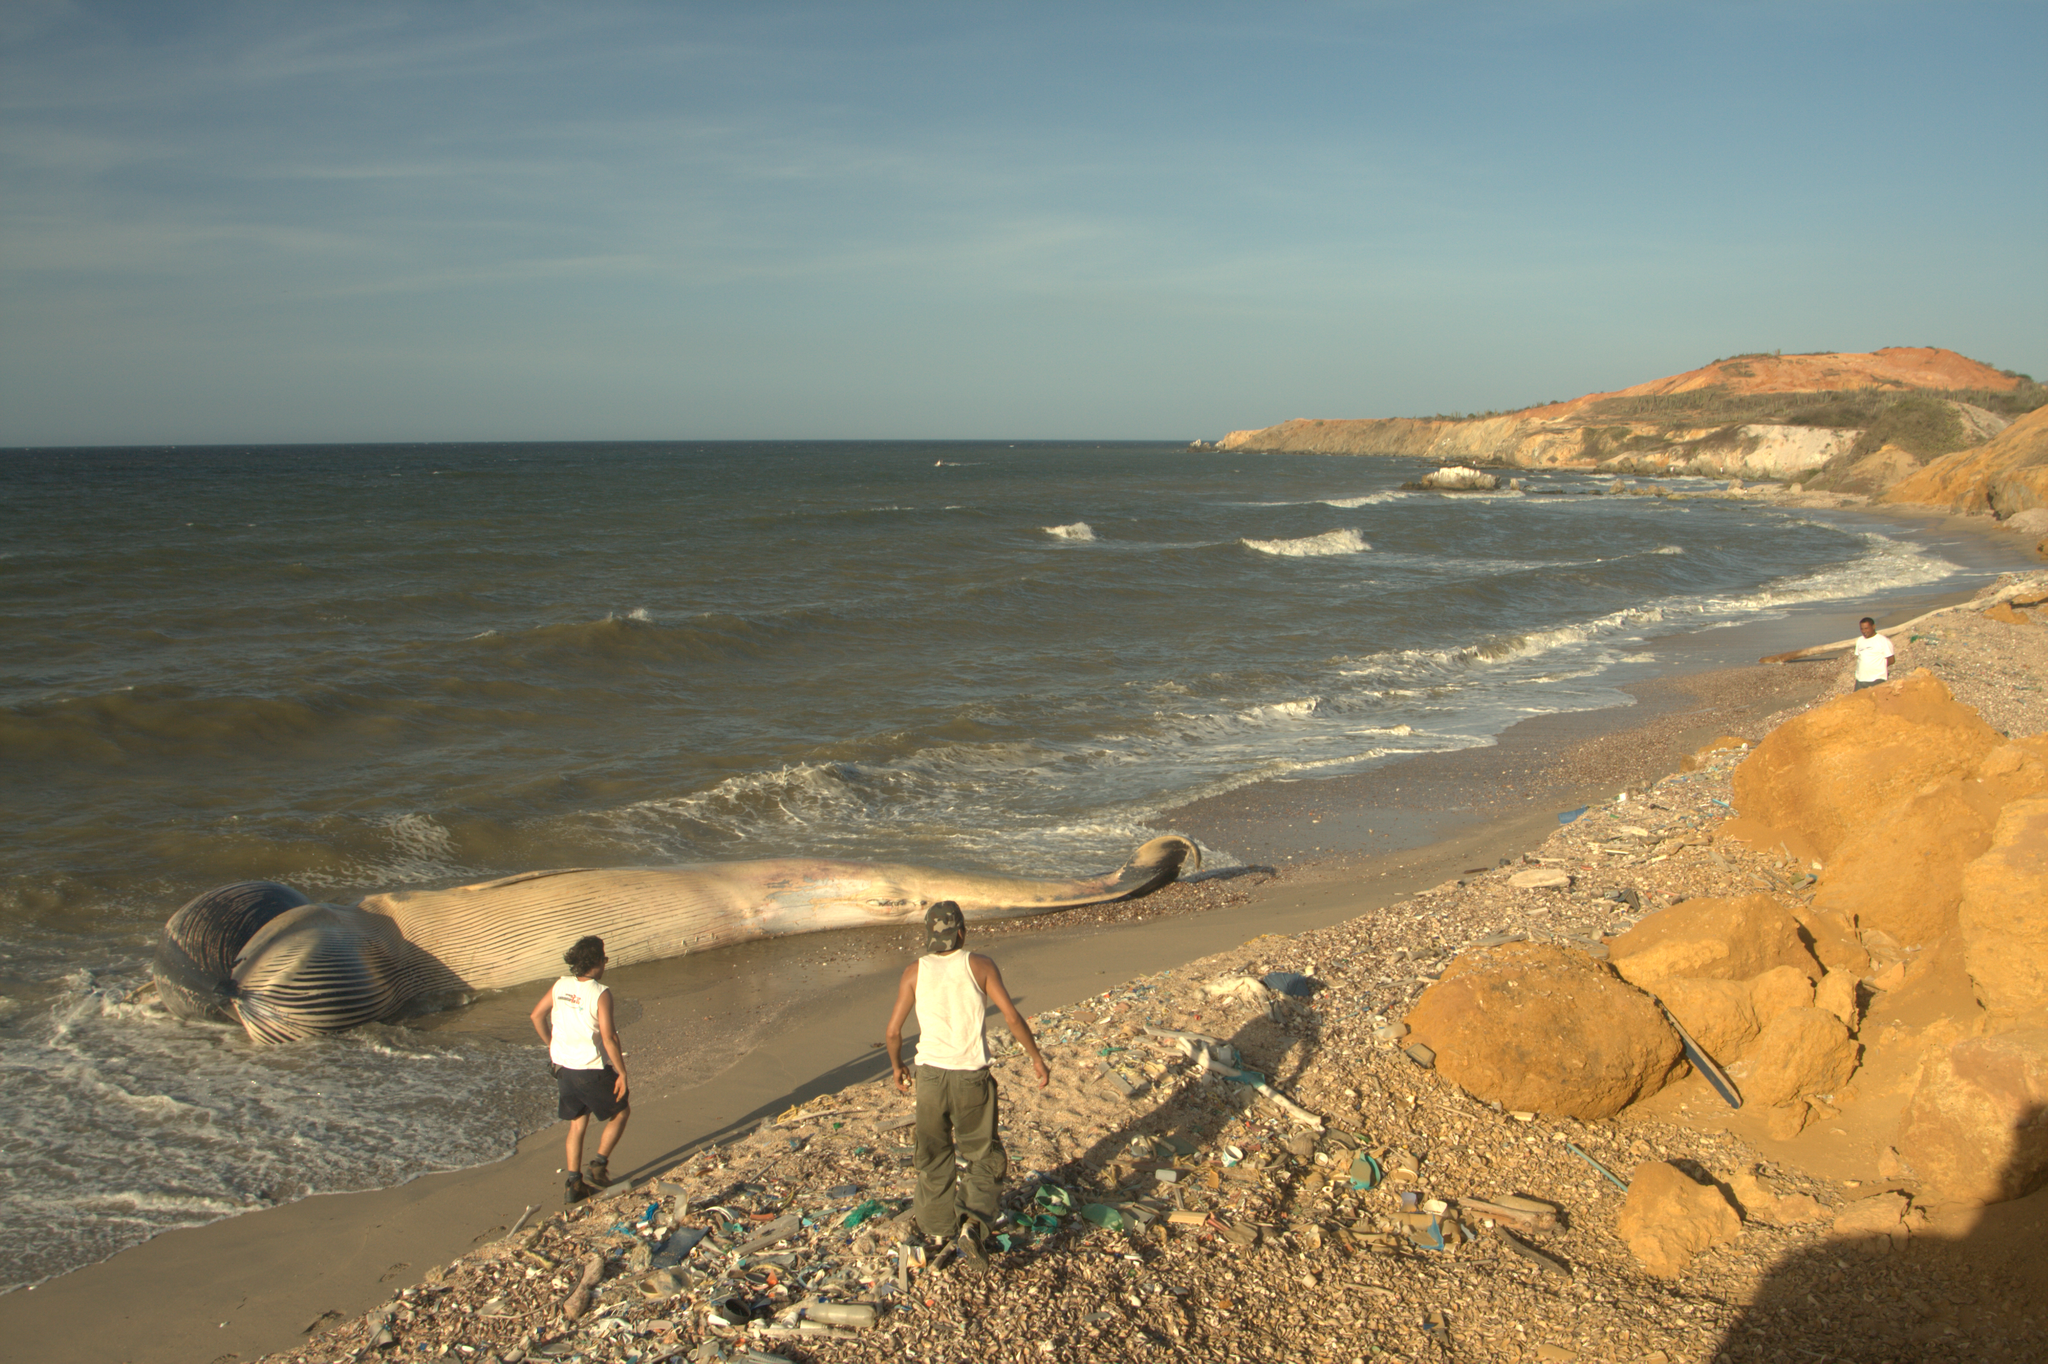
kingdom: Animalia
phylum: Chordata
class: Mammalia
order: Cetacea
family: Balaenopteridae
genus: Balaenoptera
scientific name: Balaenoptera acutorostrata
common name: Common minke whale
